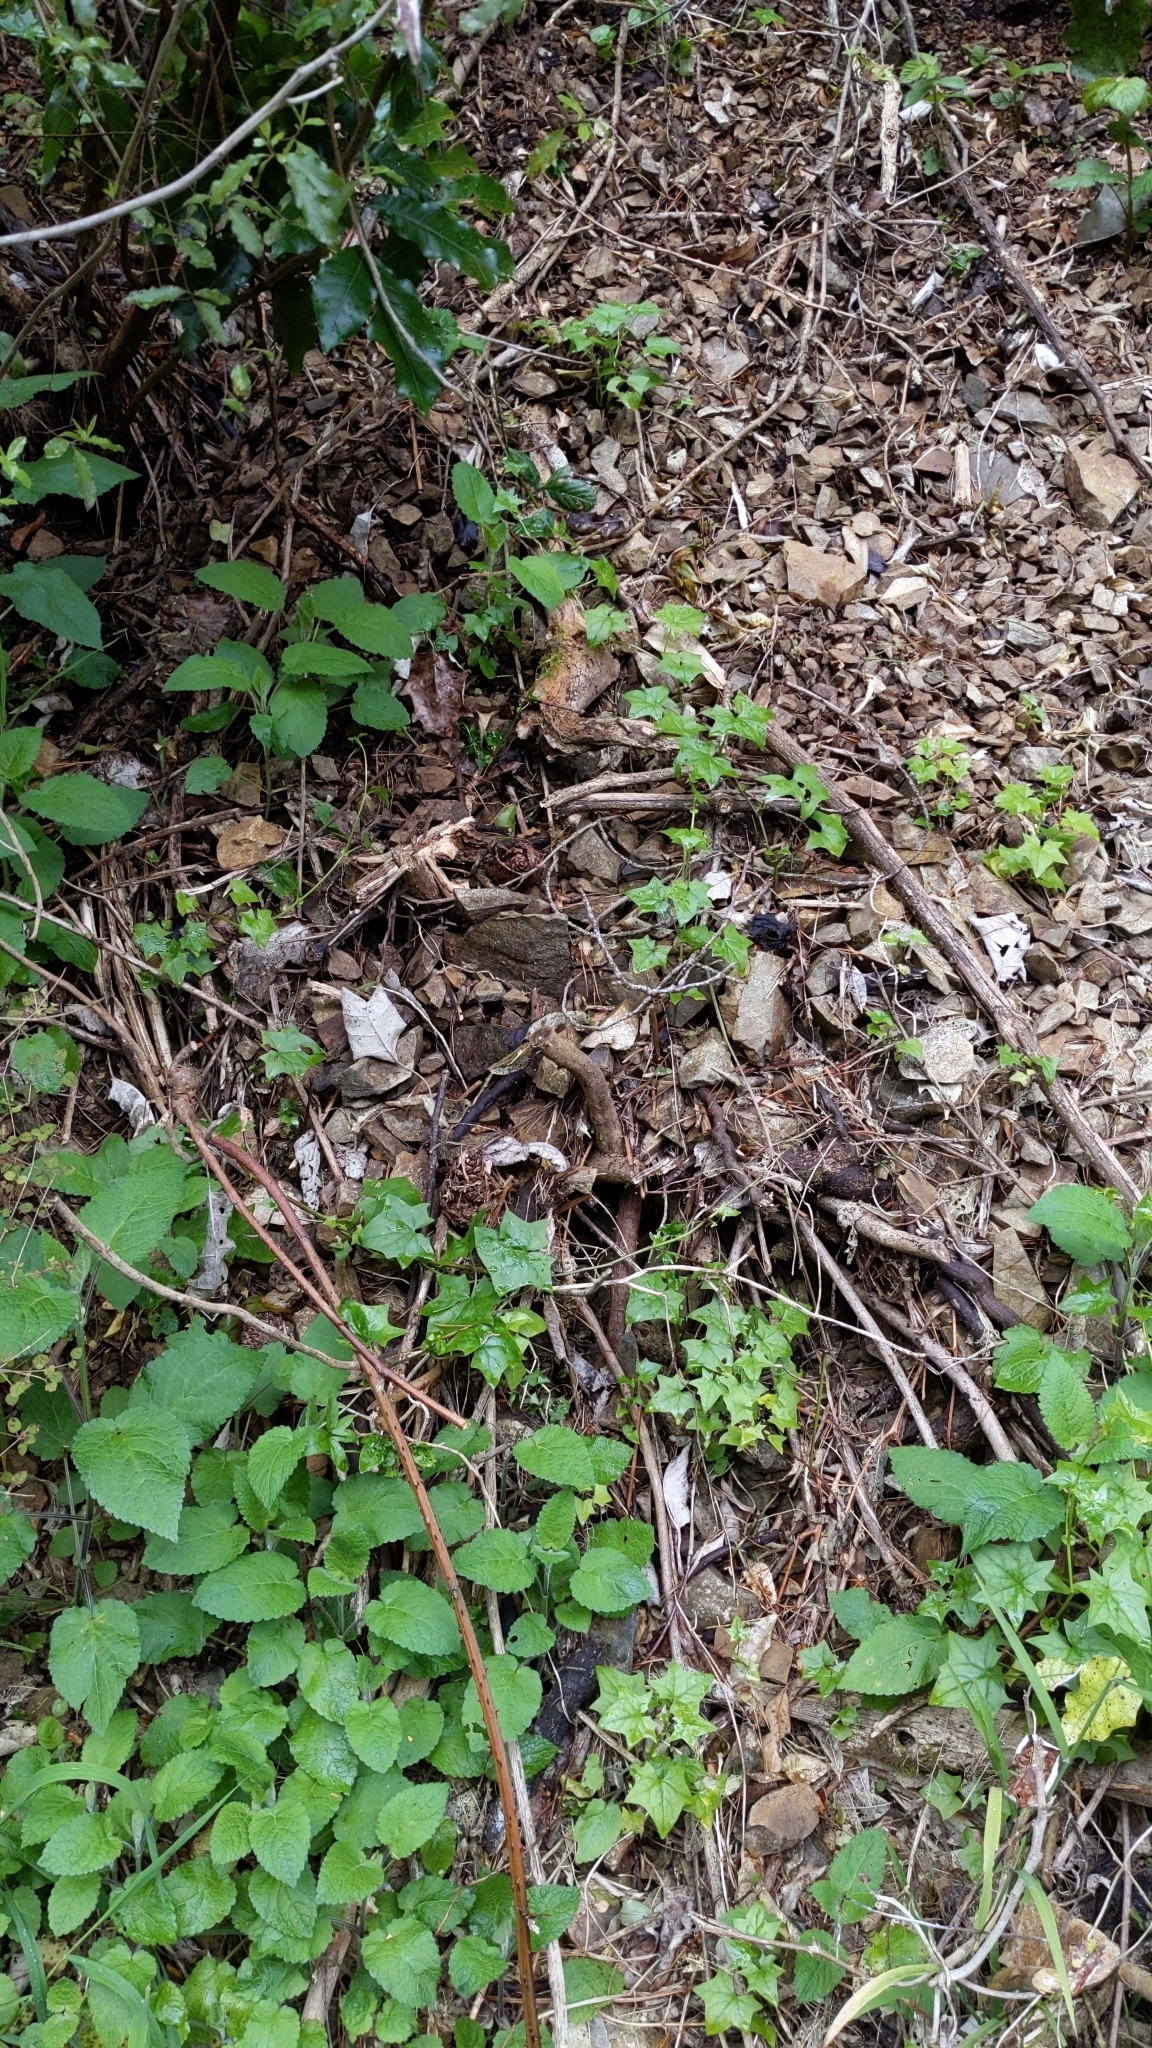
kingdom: Plantae
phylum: Tracheophyta
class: Magnoliopsida
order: Asterales
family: Asteraceae
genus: Delairea
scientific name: Delairea odorata
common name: Cape-ivy
